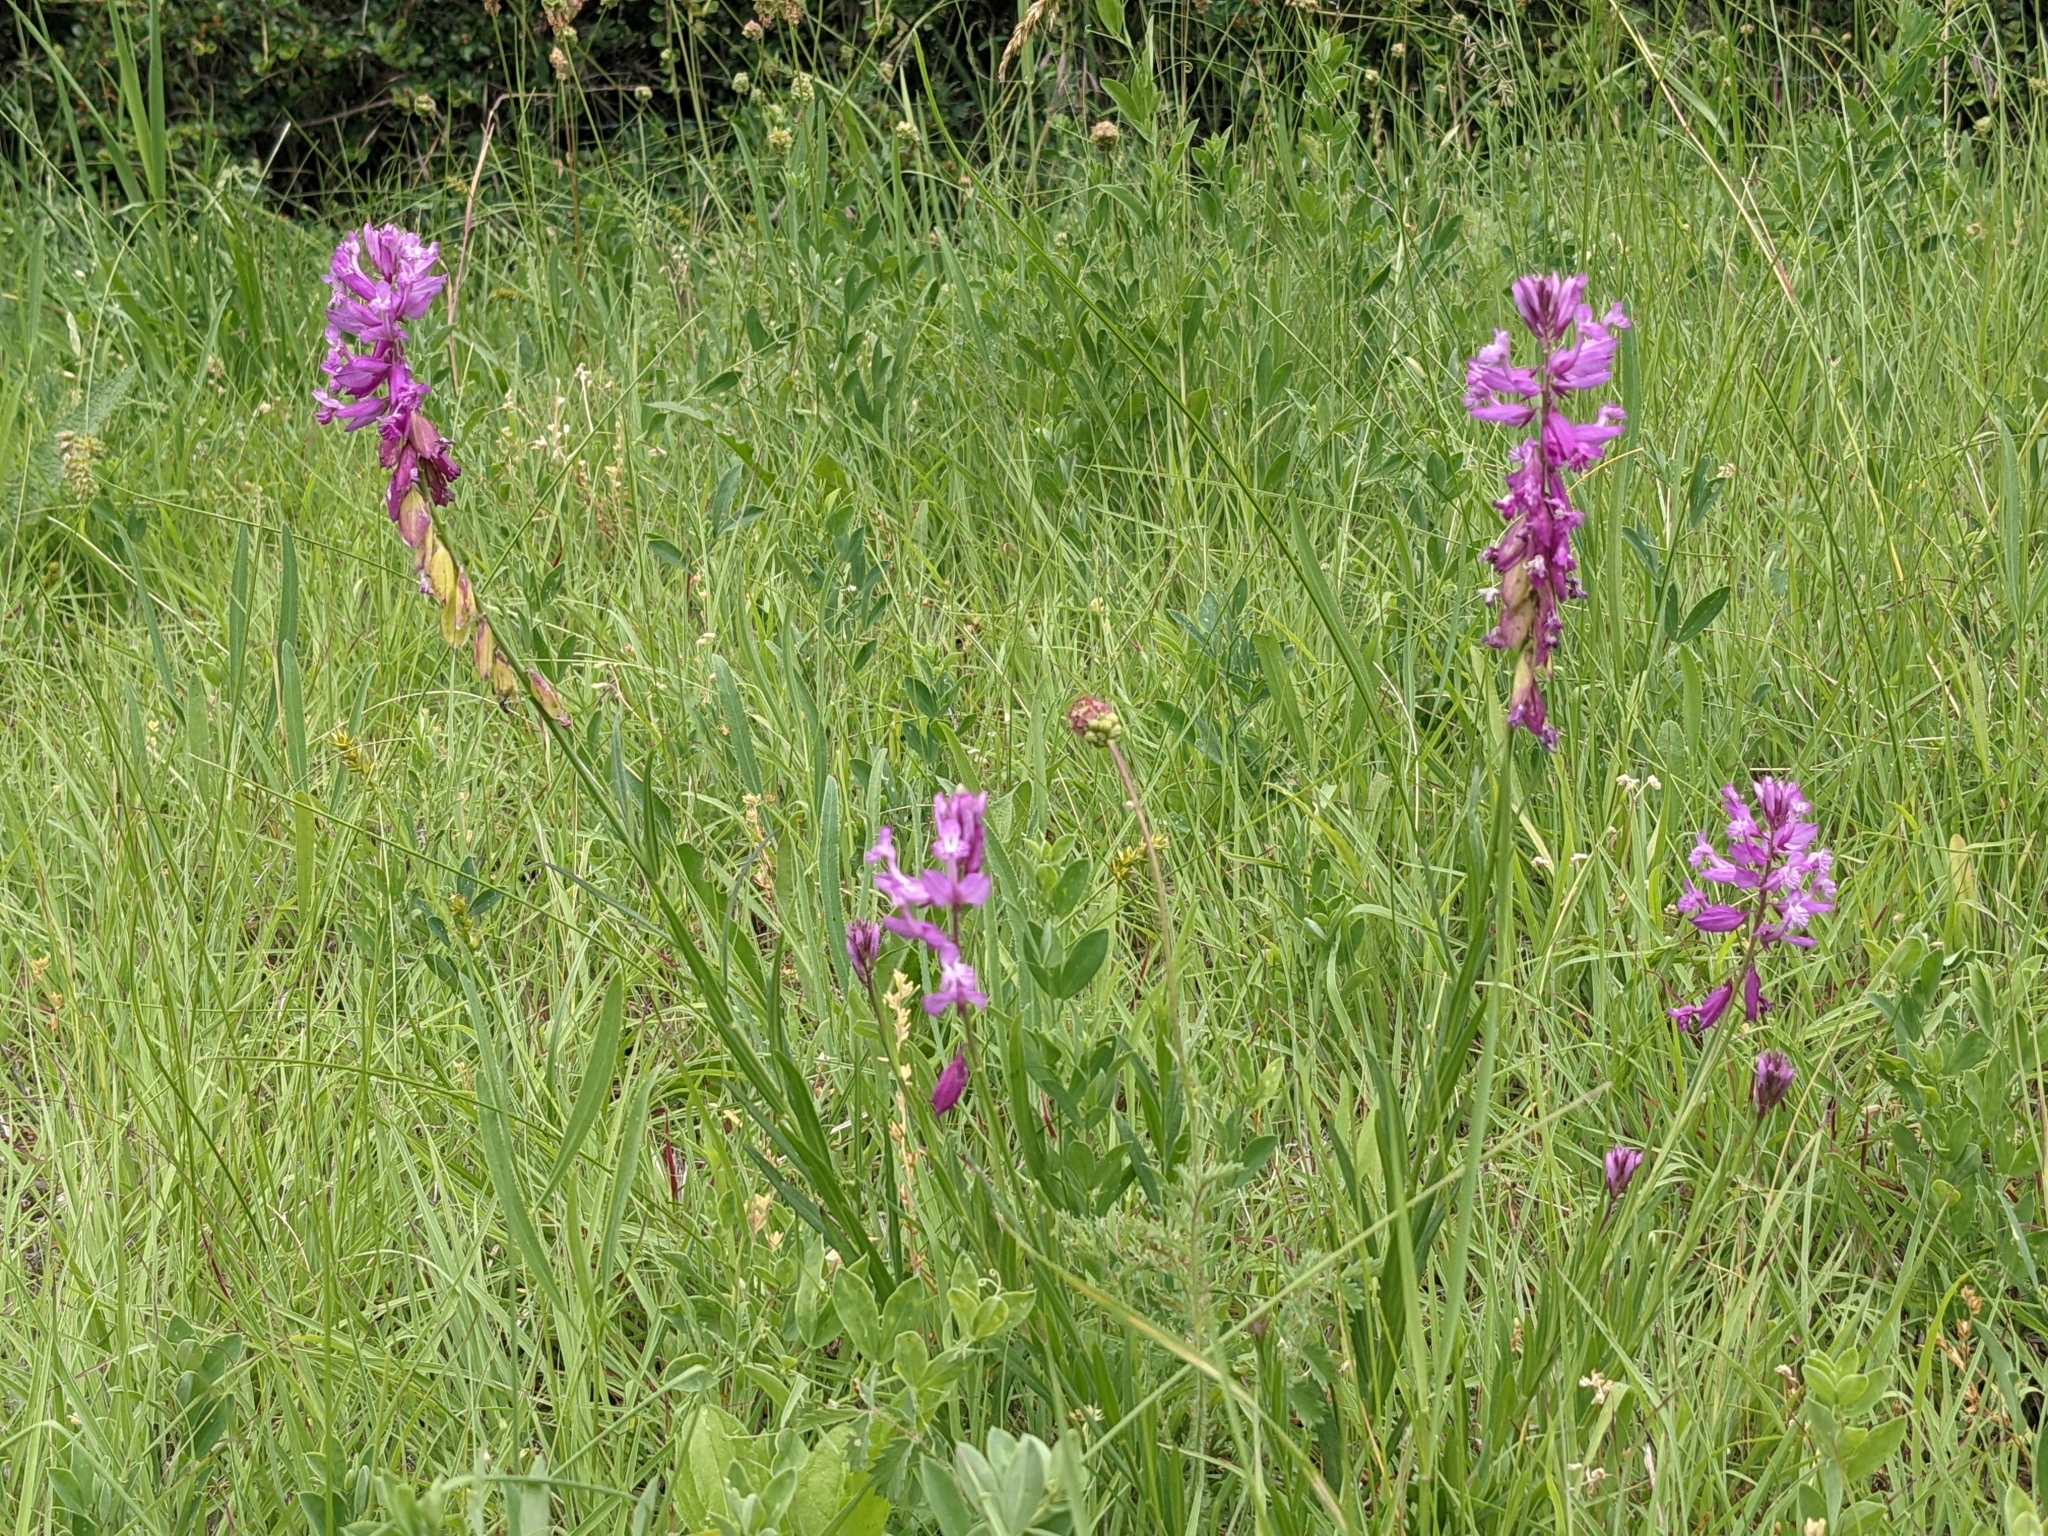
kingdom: Plantae
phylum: Tracheophyta
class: Magnoliopsida
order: Fabales
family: Polygalaceae
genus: Polygala
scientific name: Polygala major
